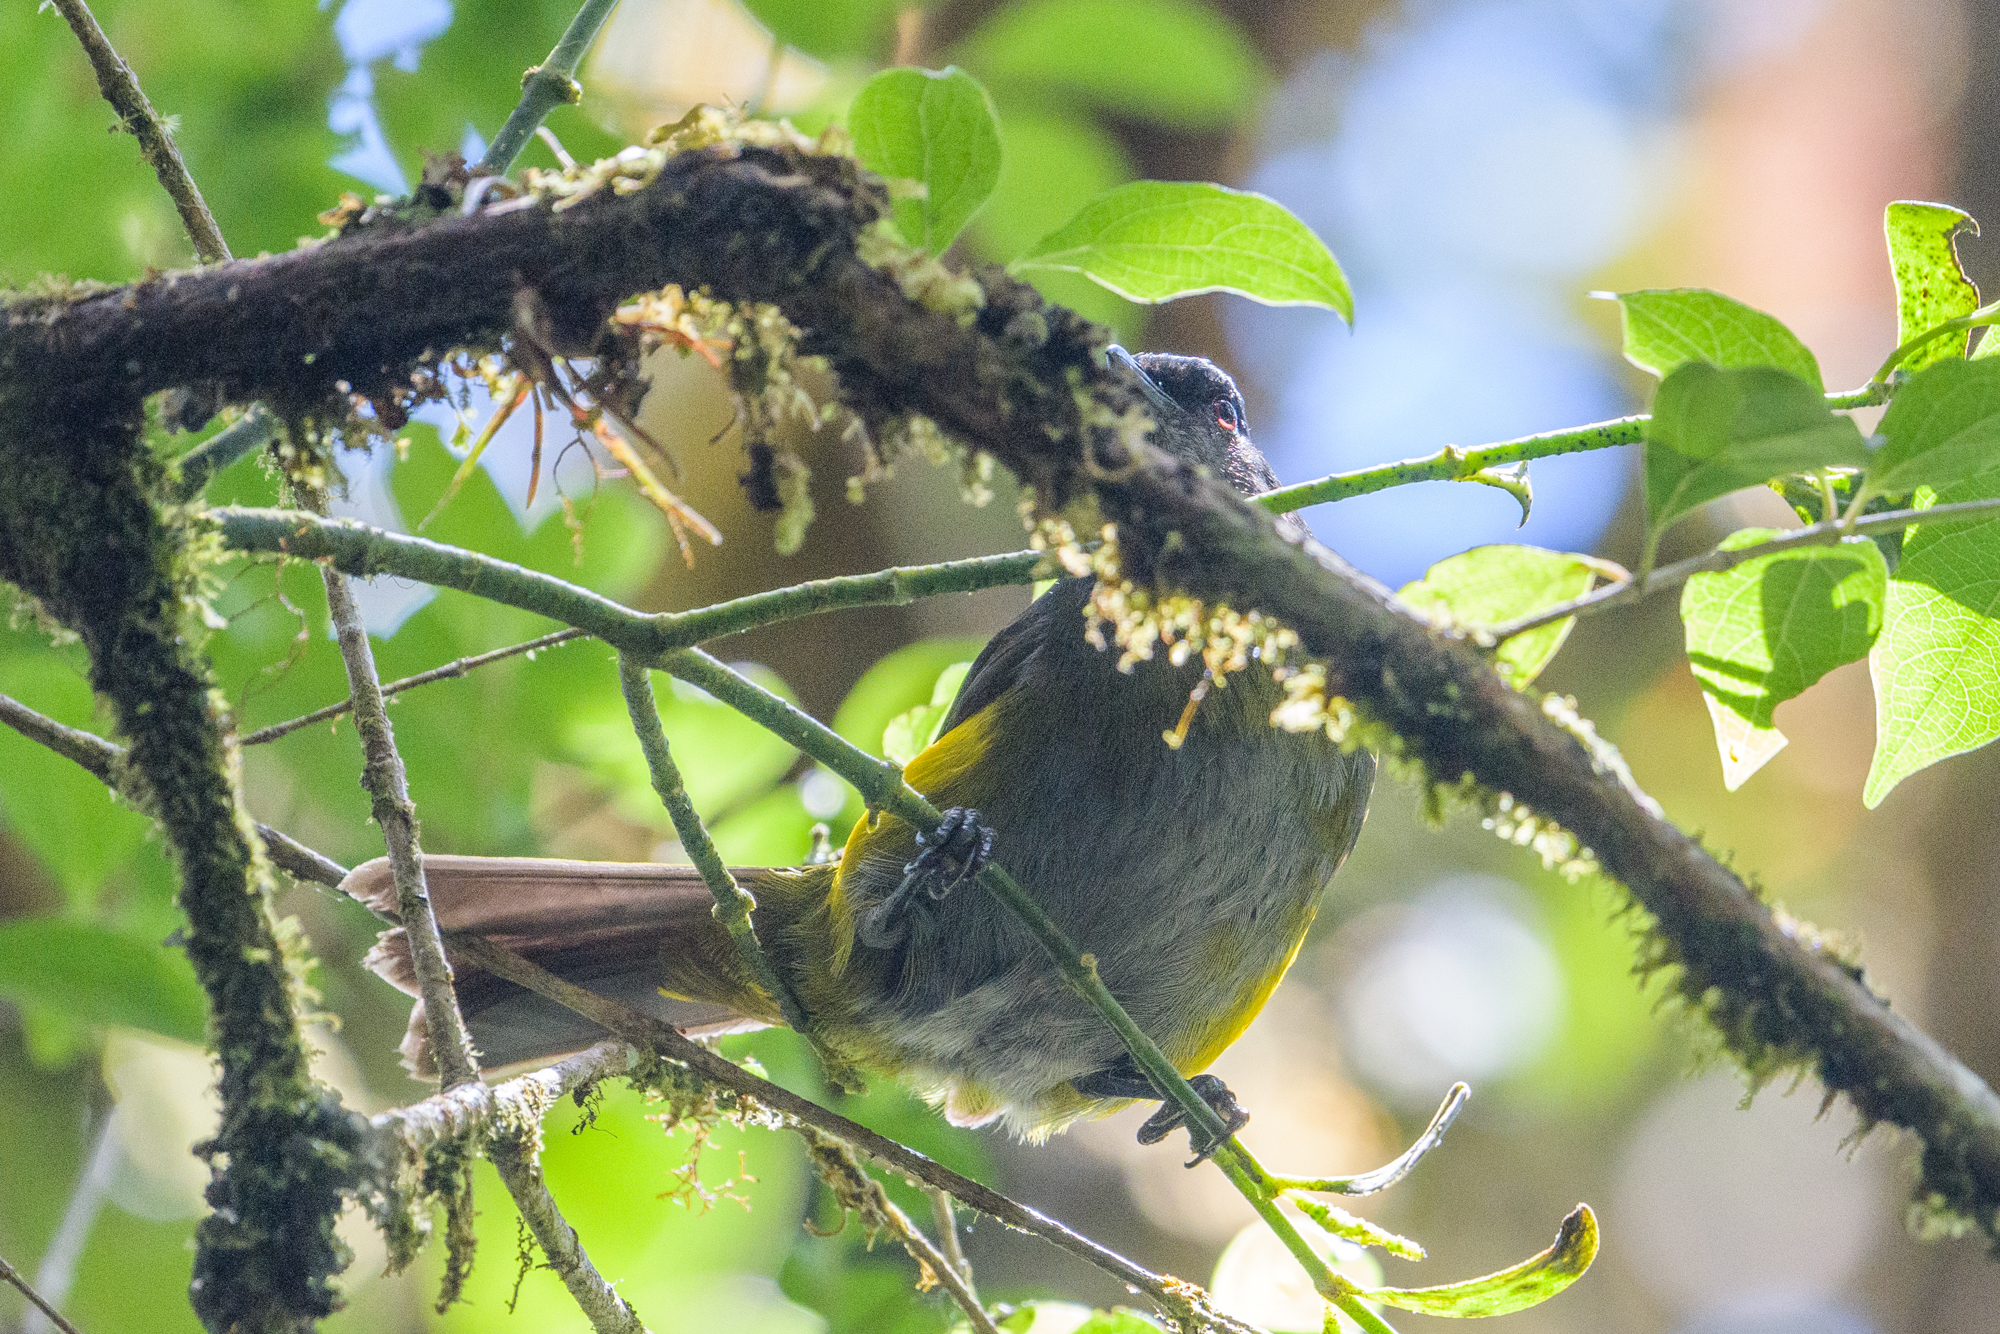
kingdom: Animalia
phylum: Chordata
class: Aves
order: Passeriformes
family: Ptilogonatidae
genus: Phainoptila
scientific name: Phainoptila melanoxantha
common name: Black-and-yellow phainoptila
